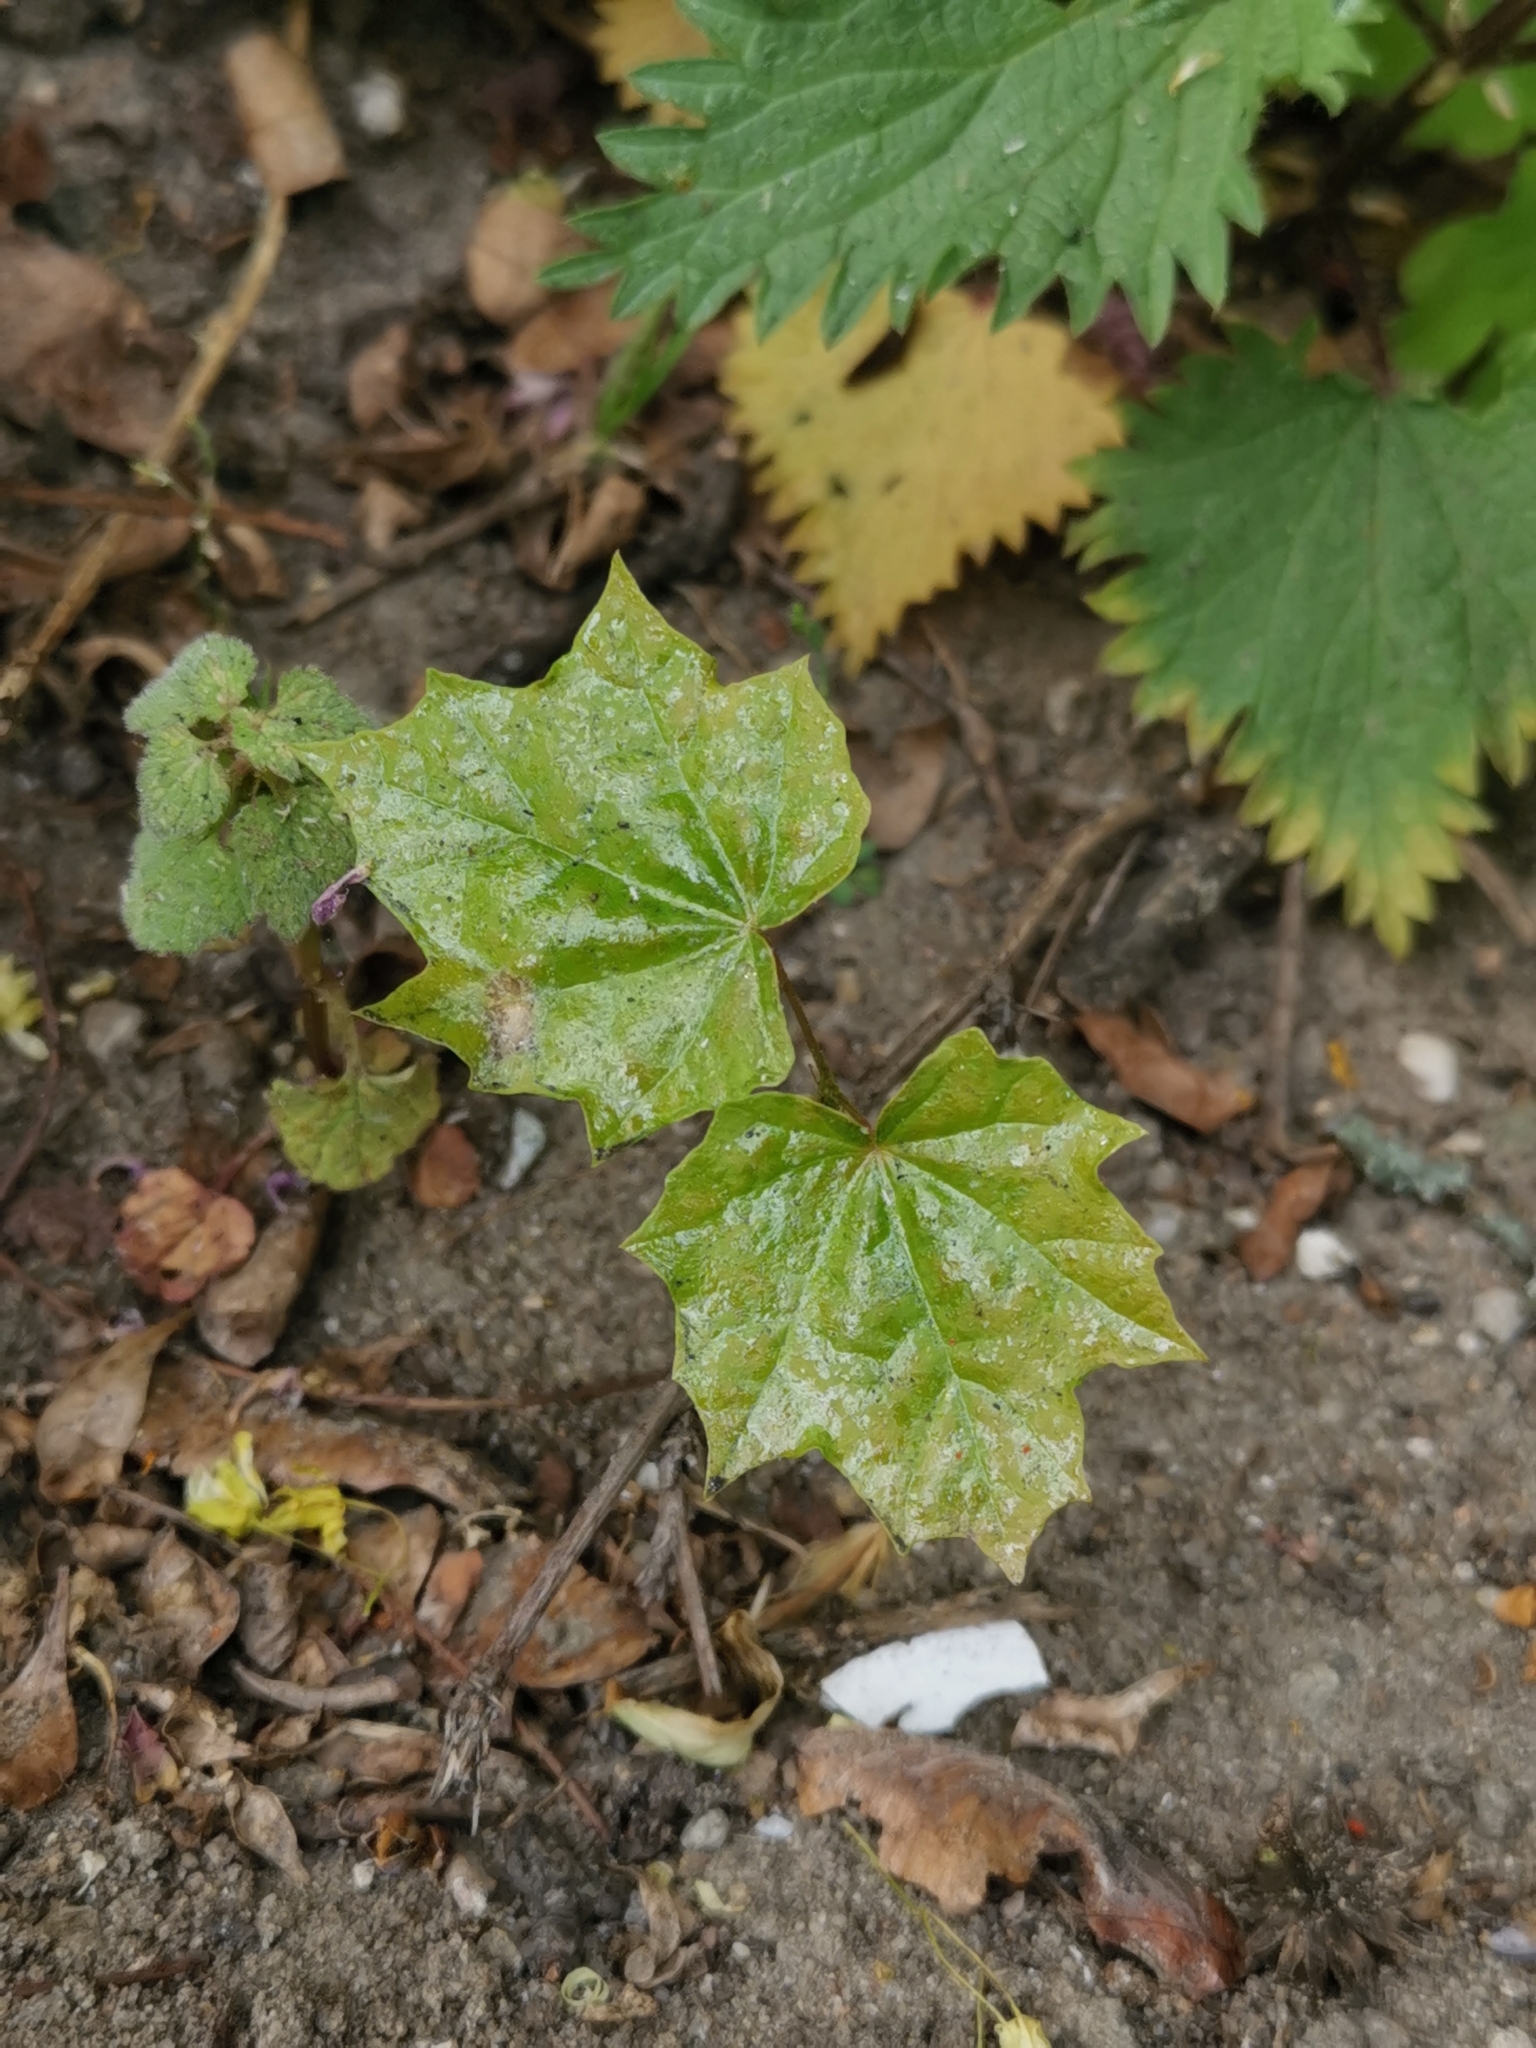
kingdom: Plantae
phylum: Tracheophyta
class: Magnoliopsida
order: Sapindales
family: Sapindaceae
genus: Acer
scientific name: Acer platanoides
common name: Norway maple
